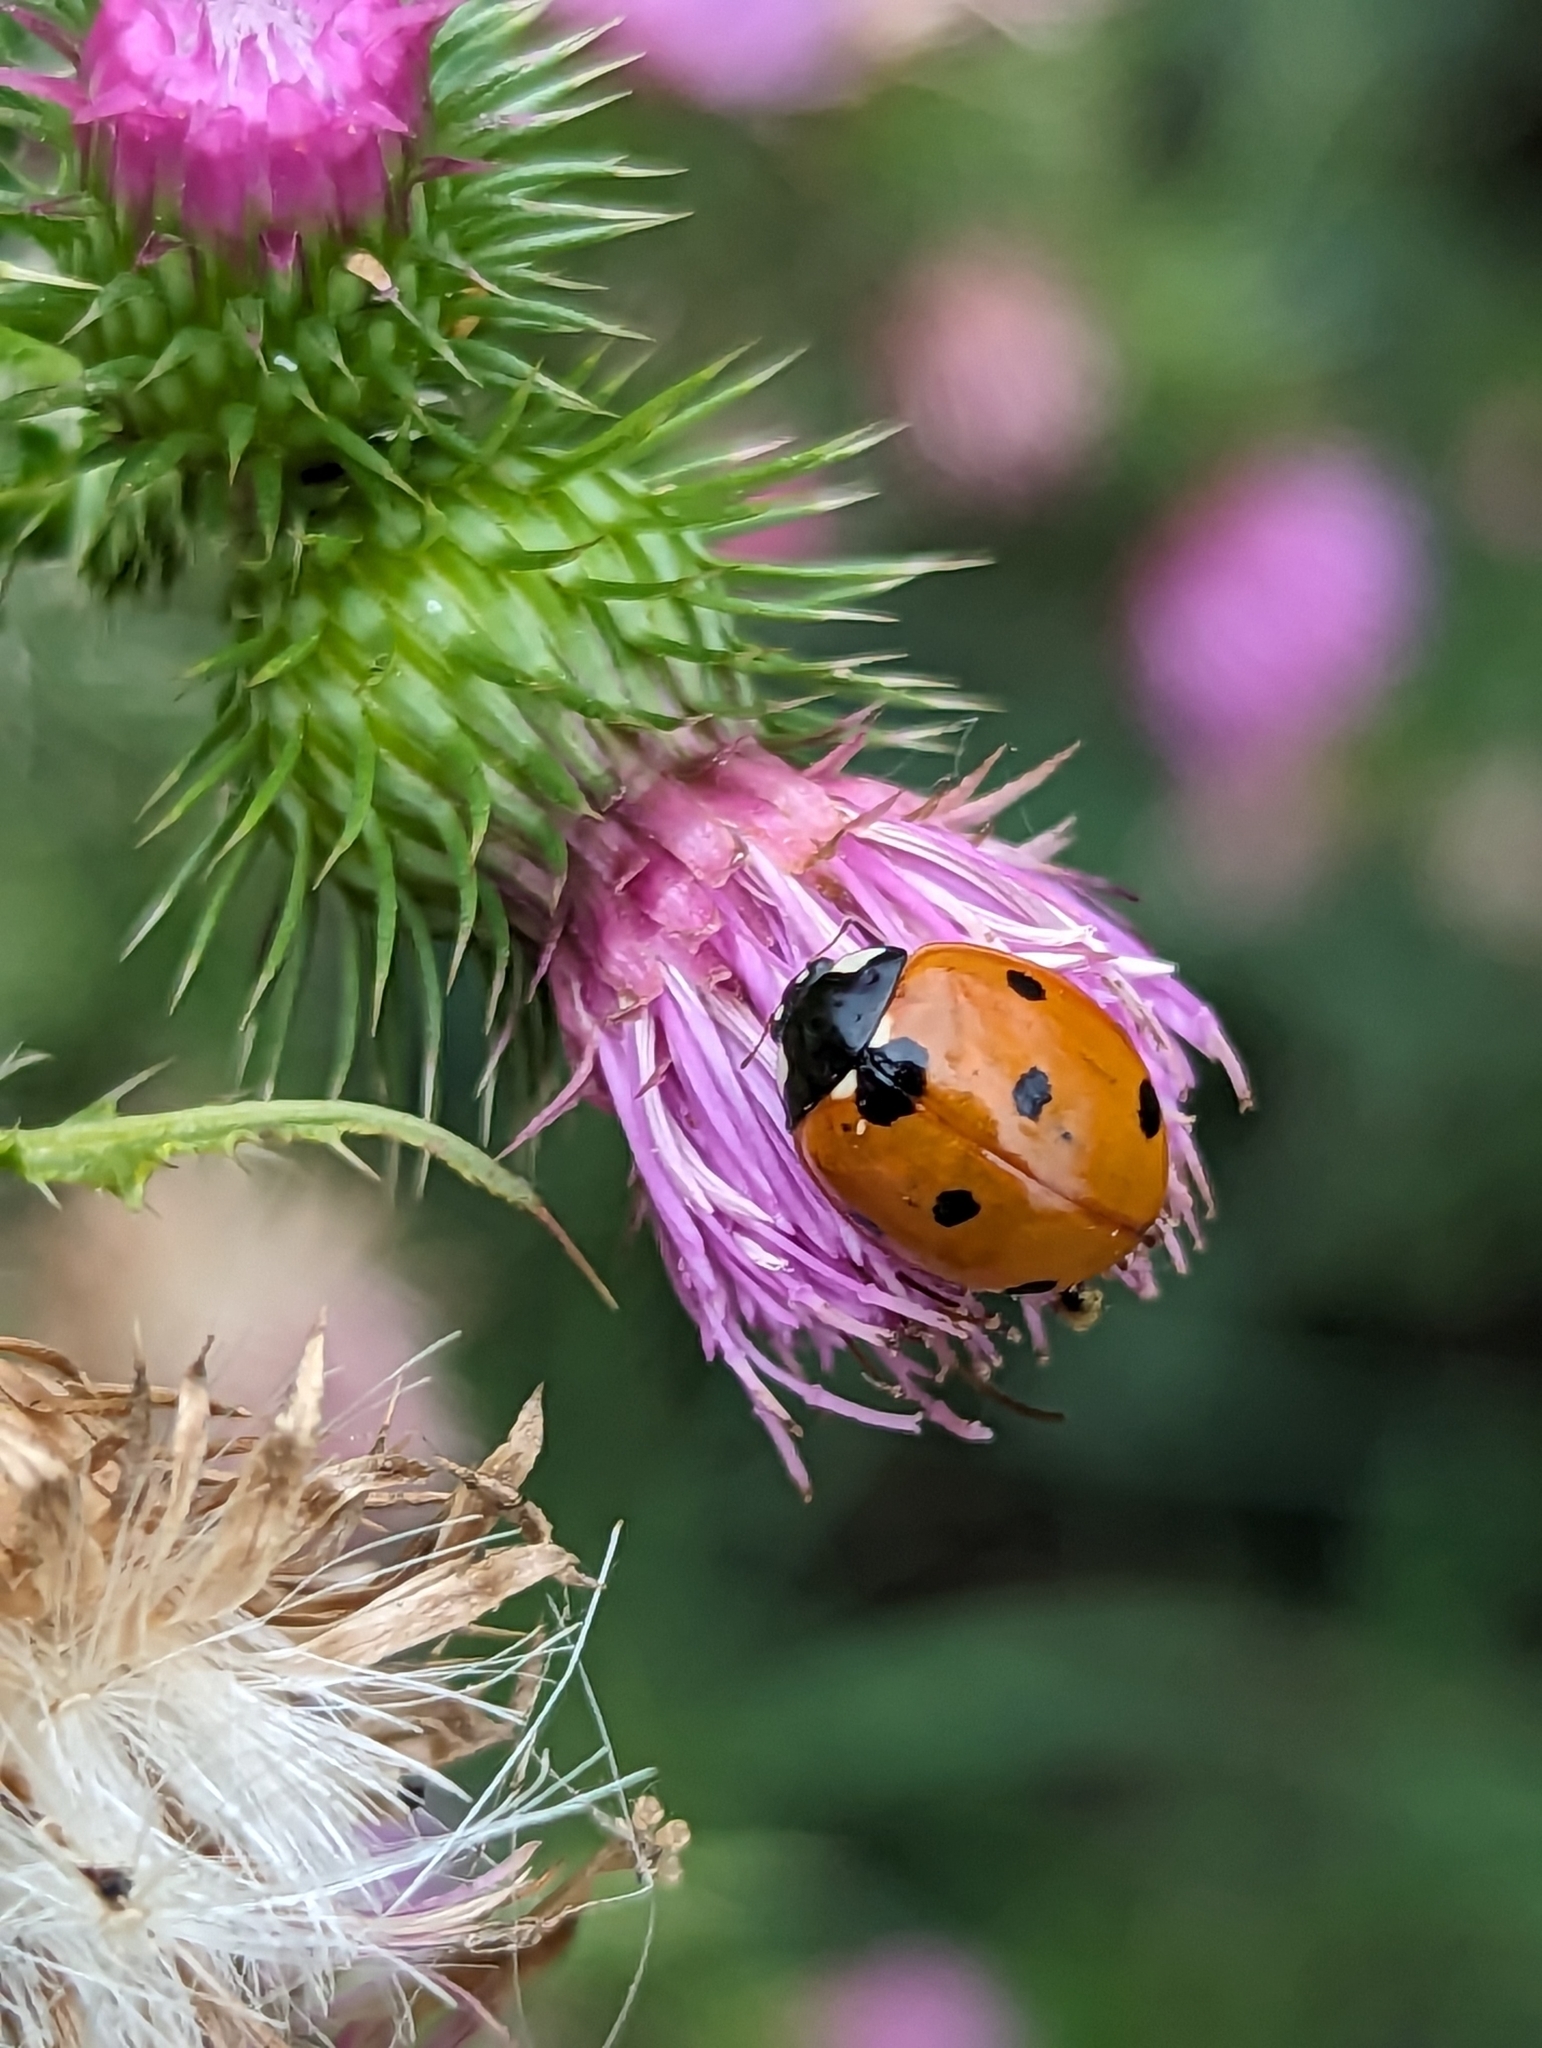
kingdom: Animalia
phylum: Arthropoda
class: Insecta
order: Coleoptera
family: Coccinellidae
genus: Coccinella
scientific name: Coccinella septempunctata
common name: Sevenspotted lady beetle
